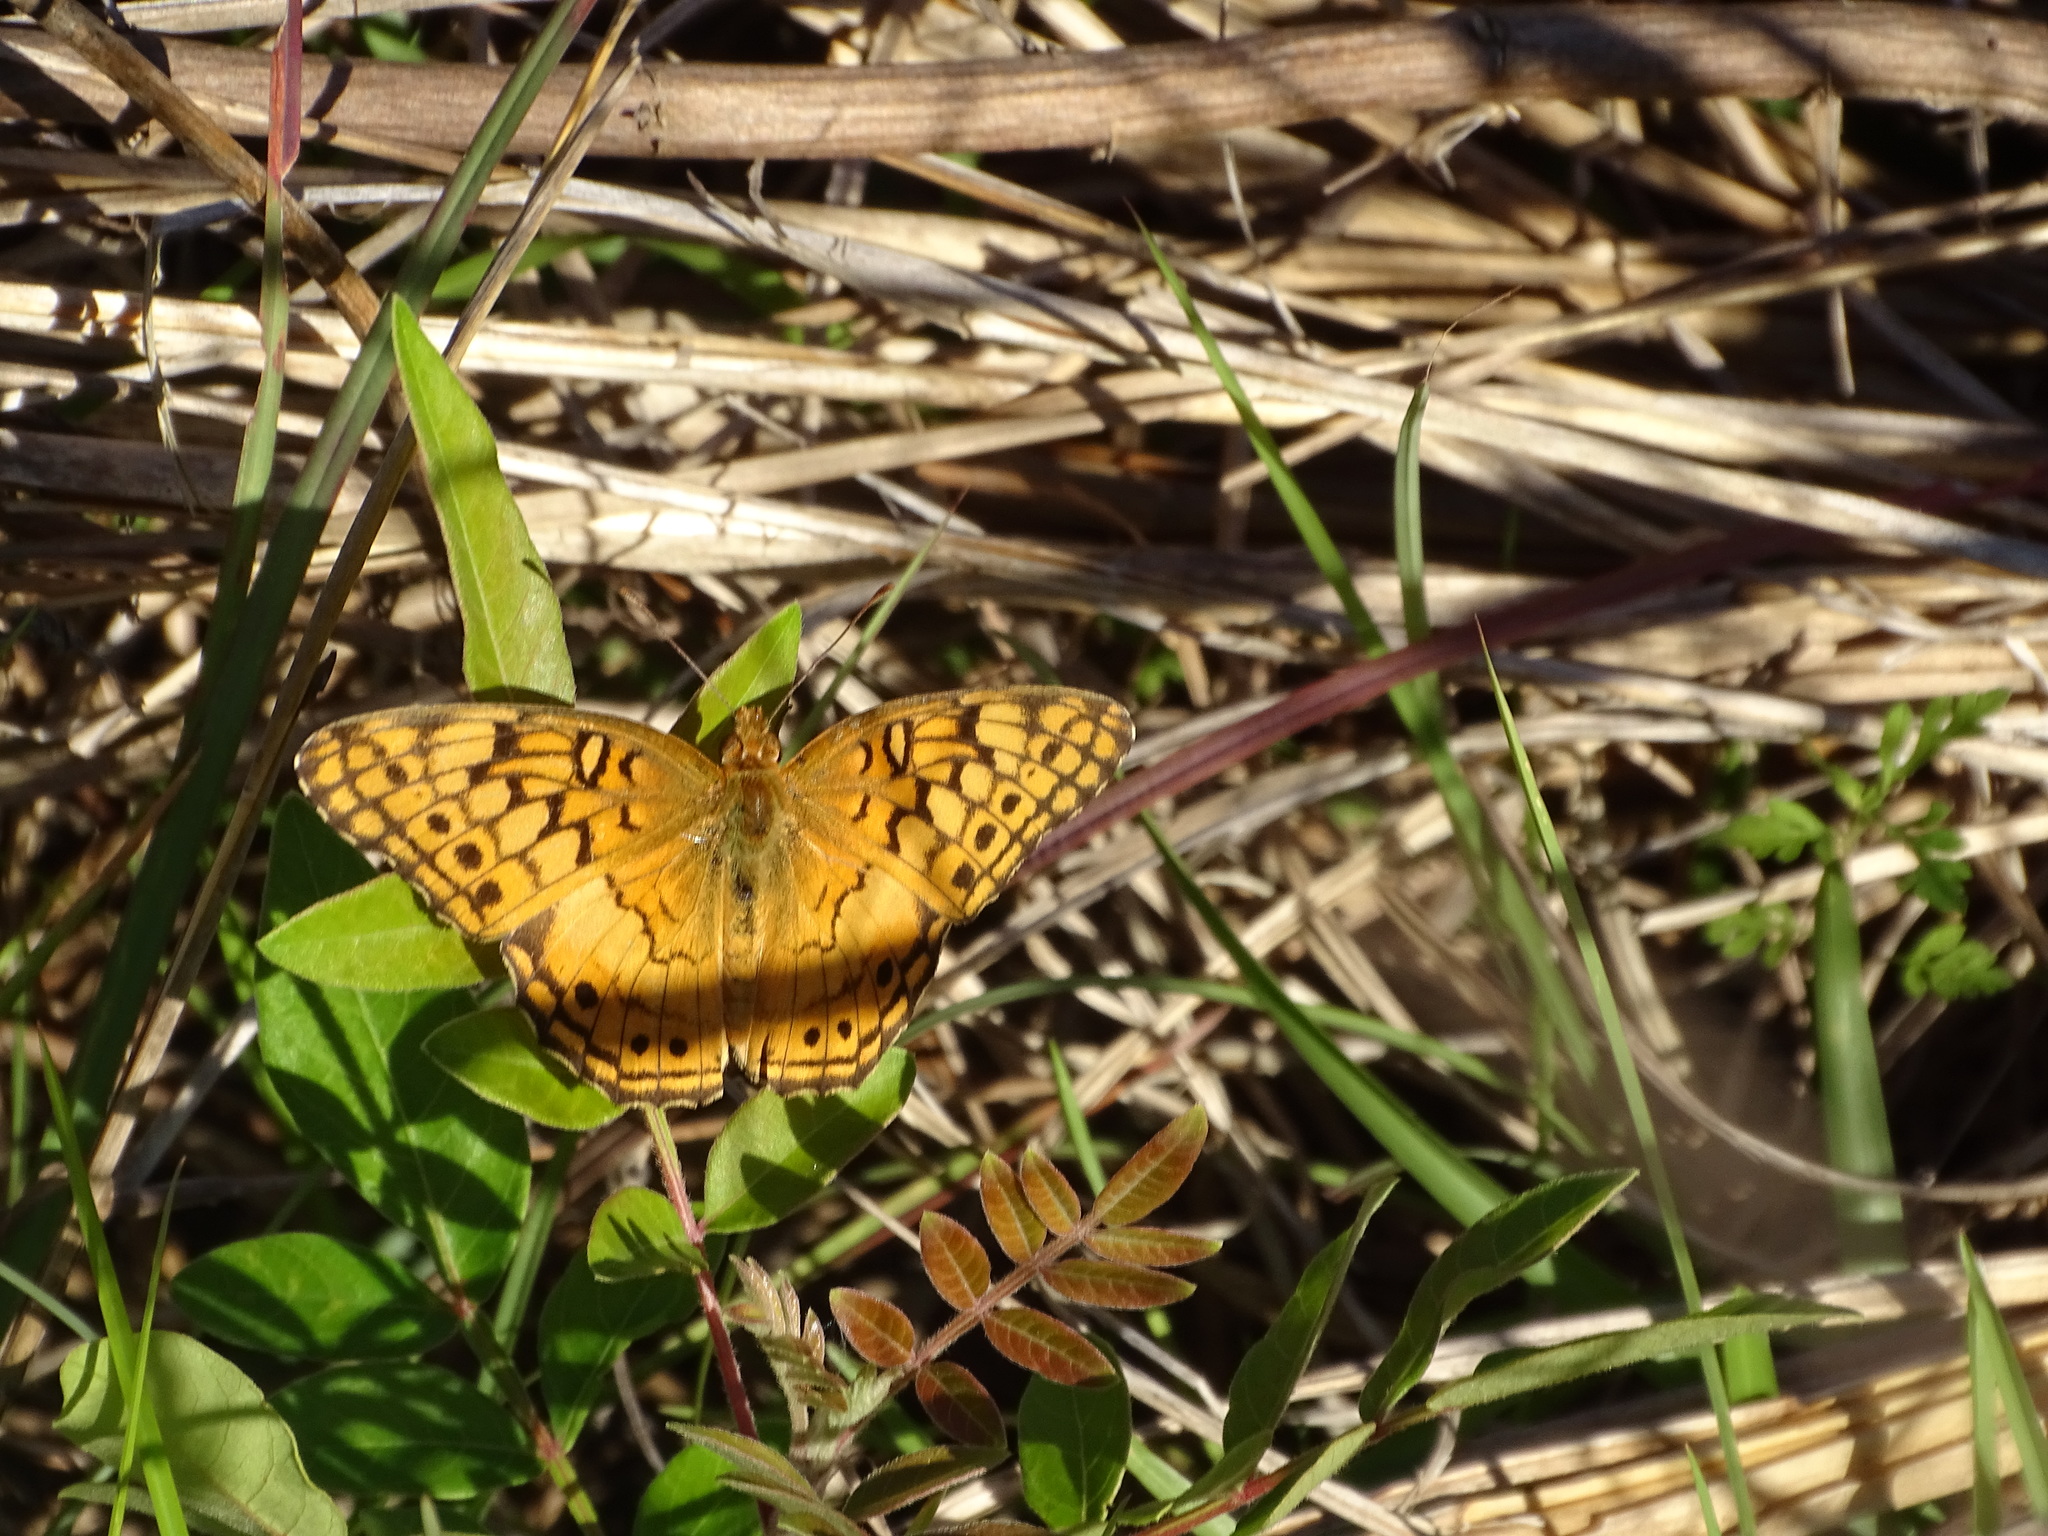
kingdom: Animalia
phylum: Arthropoda
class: Insecta
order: Lepidoptera
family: Nymphalidae
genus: Euptoieta
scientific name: Euptoieta claudia
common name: Variegated fritillary
